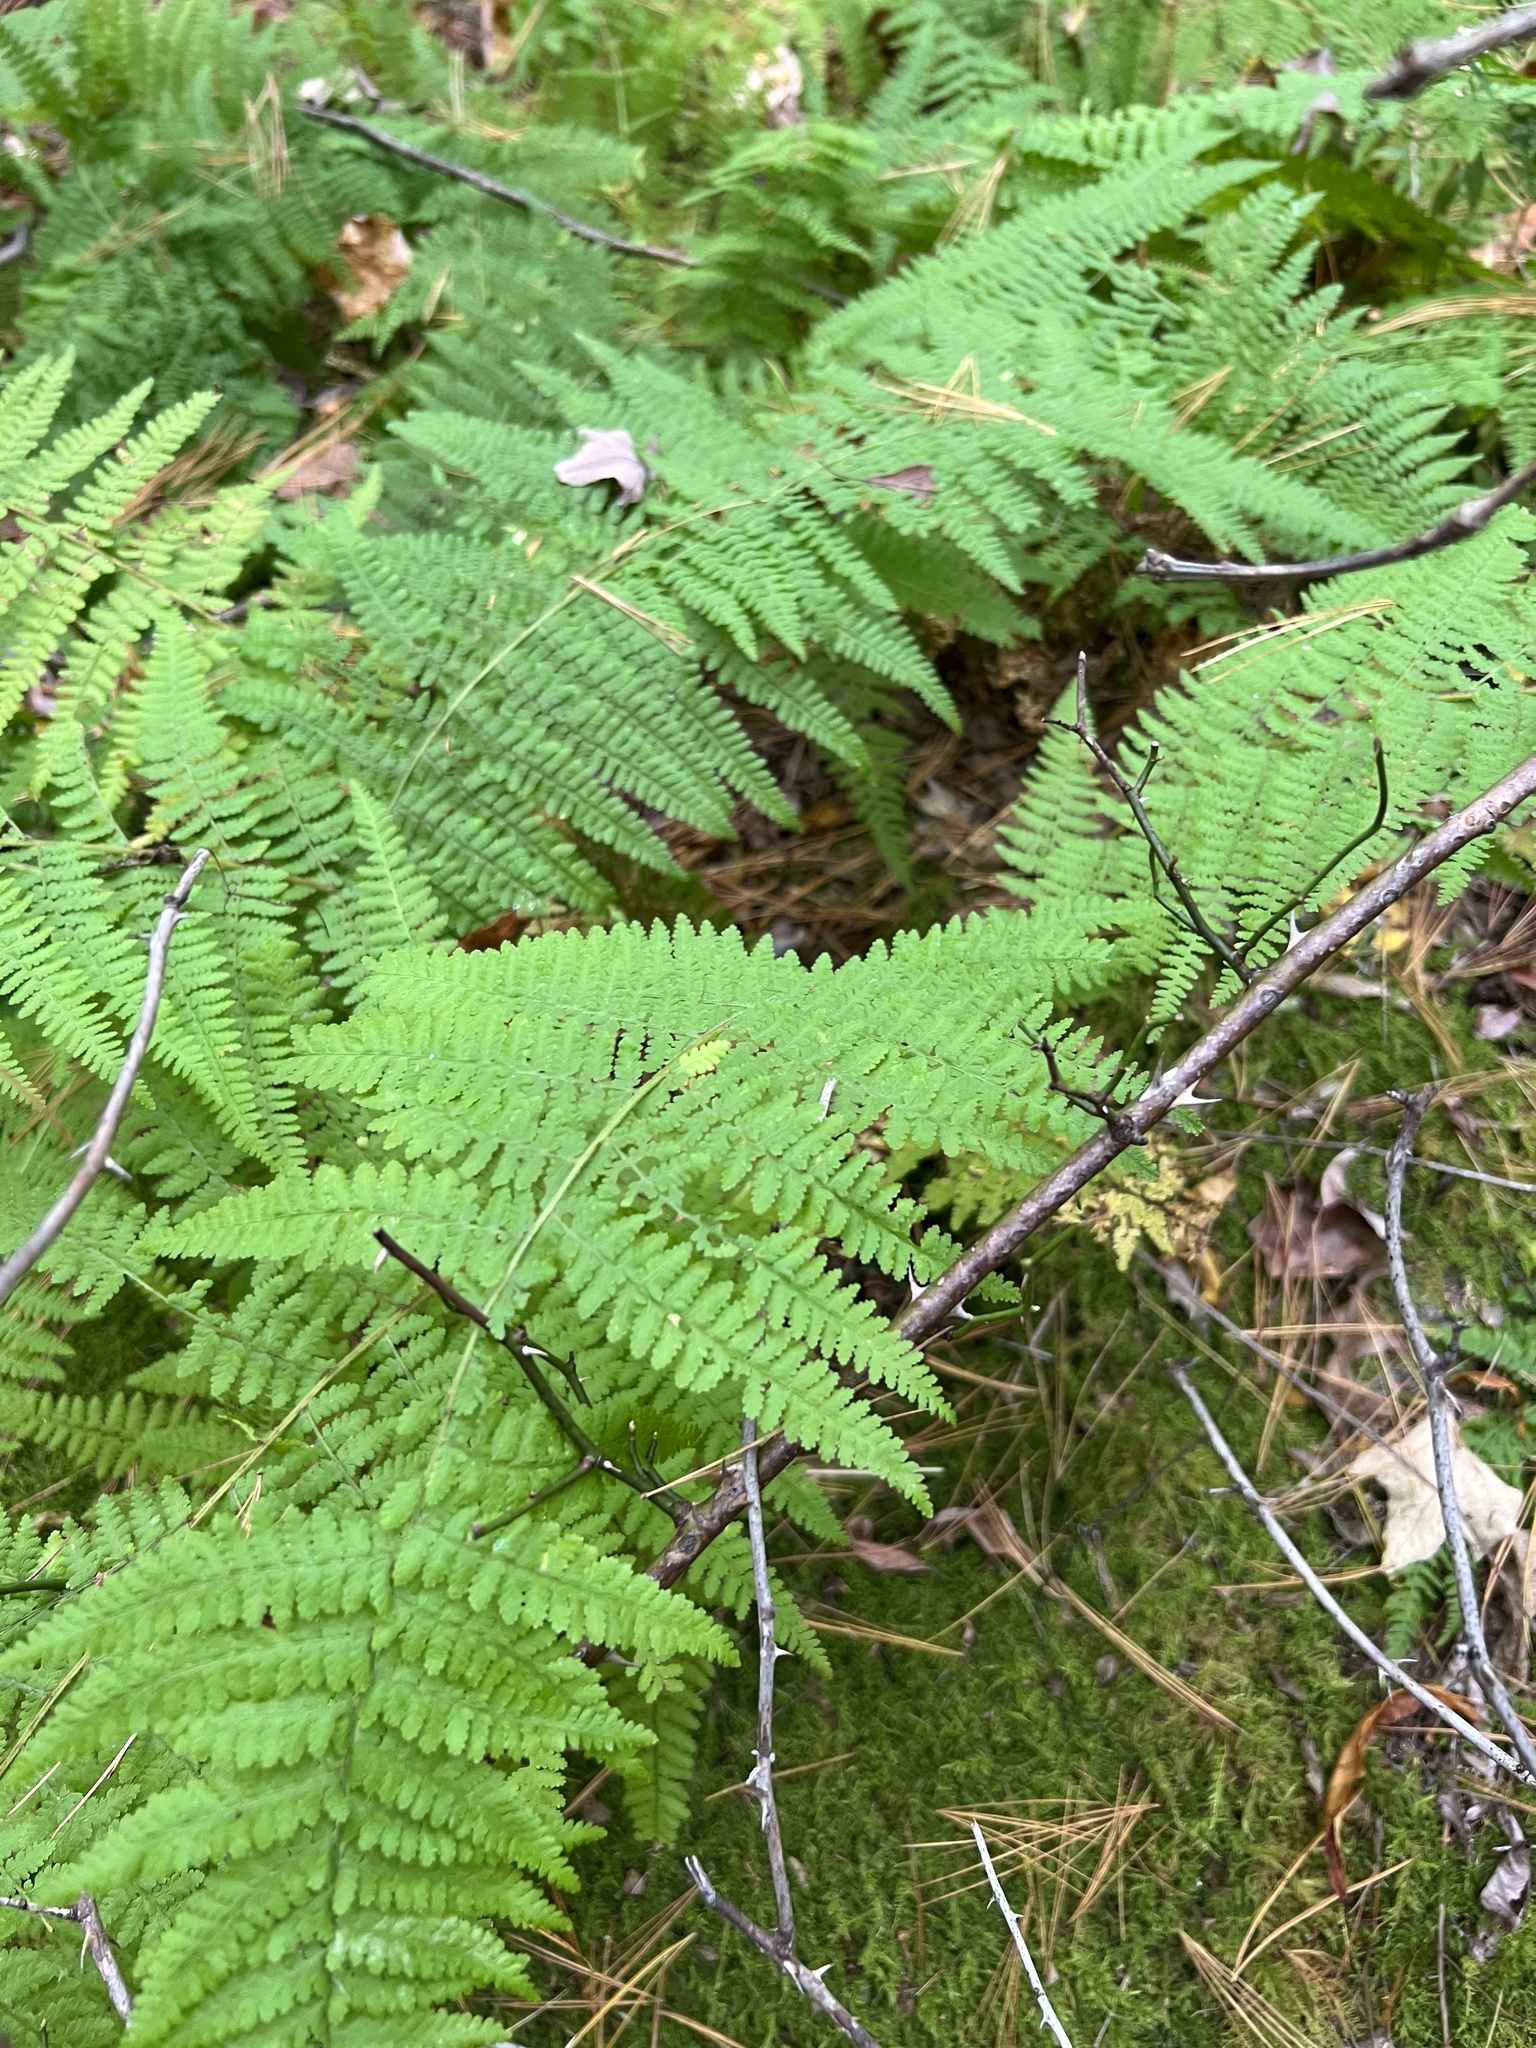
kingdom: Plantae
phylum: Tracheophyta
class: Polypodiopsida
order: Polypodiales
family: Dennstaedtiaceae
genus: Sitobolium
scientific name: Sitobolium punctilobum
